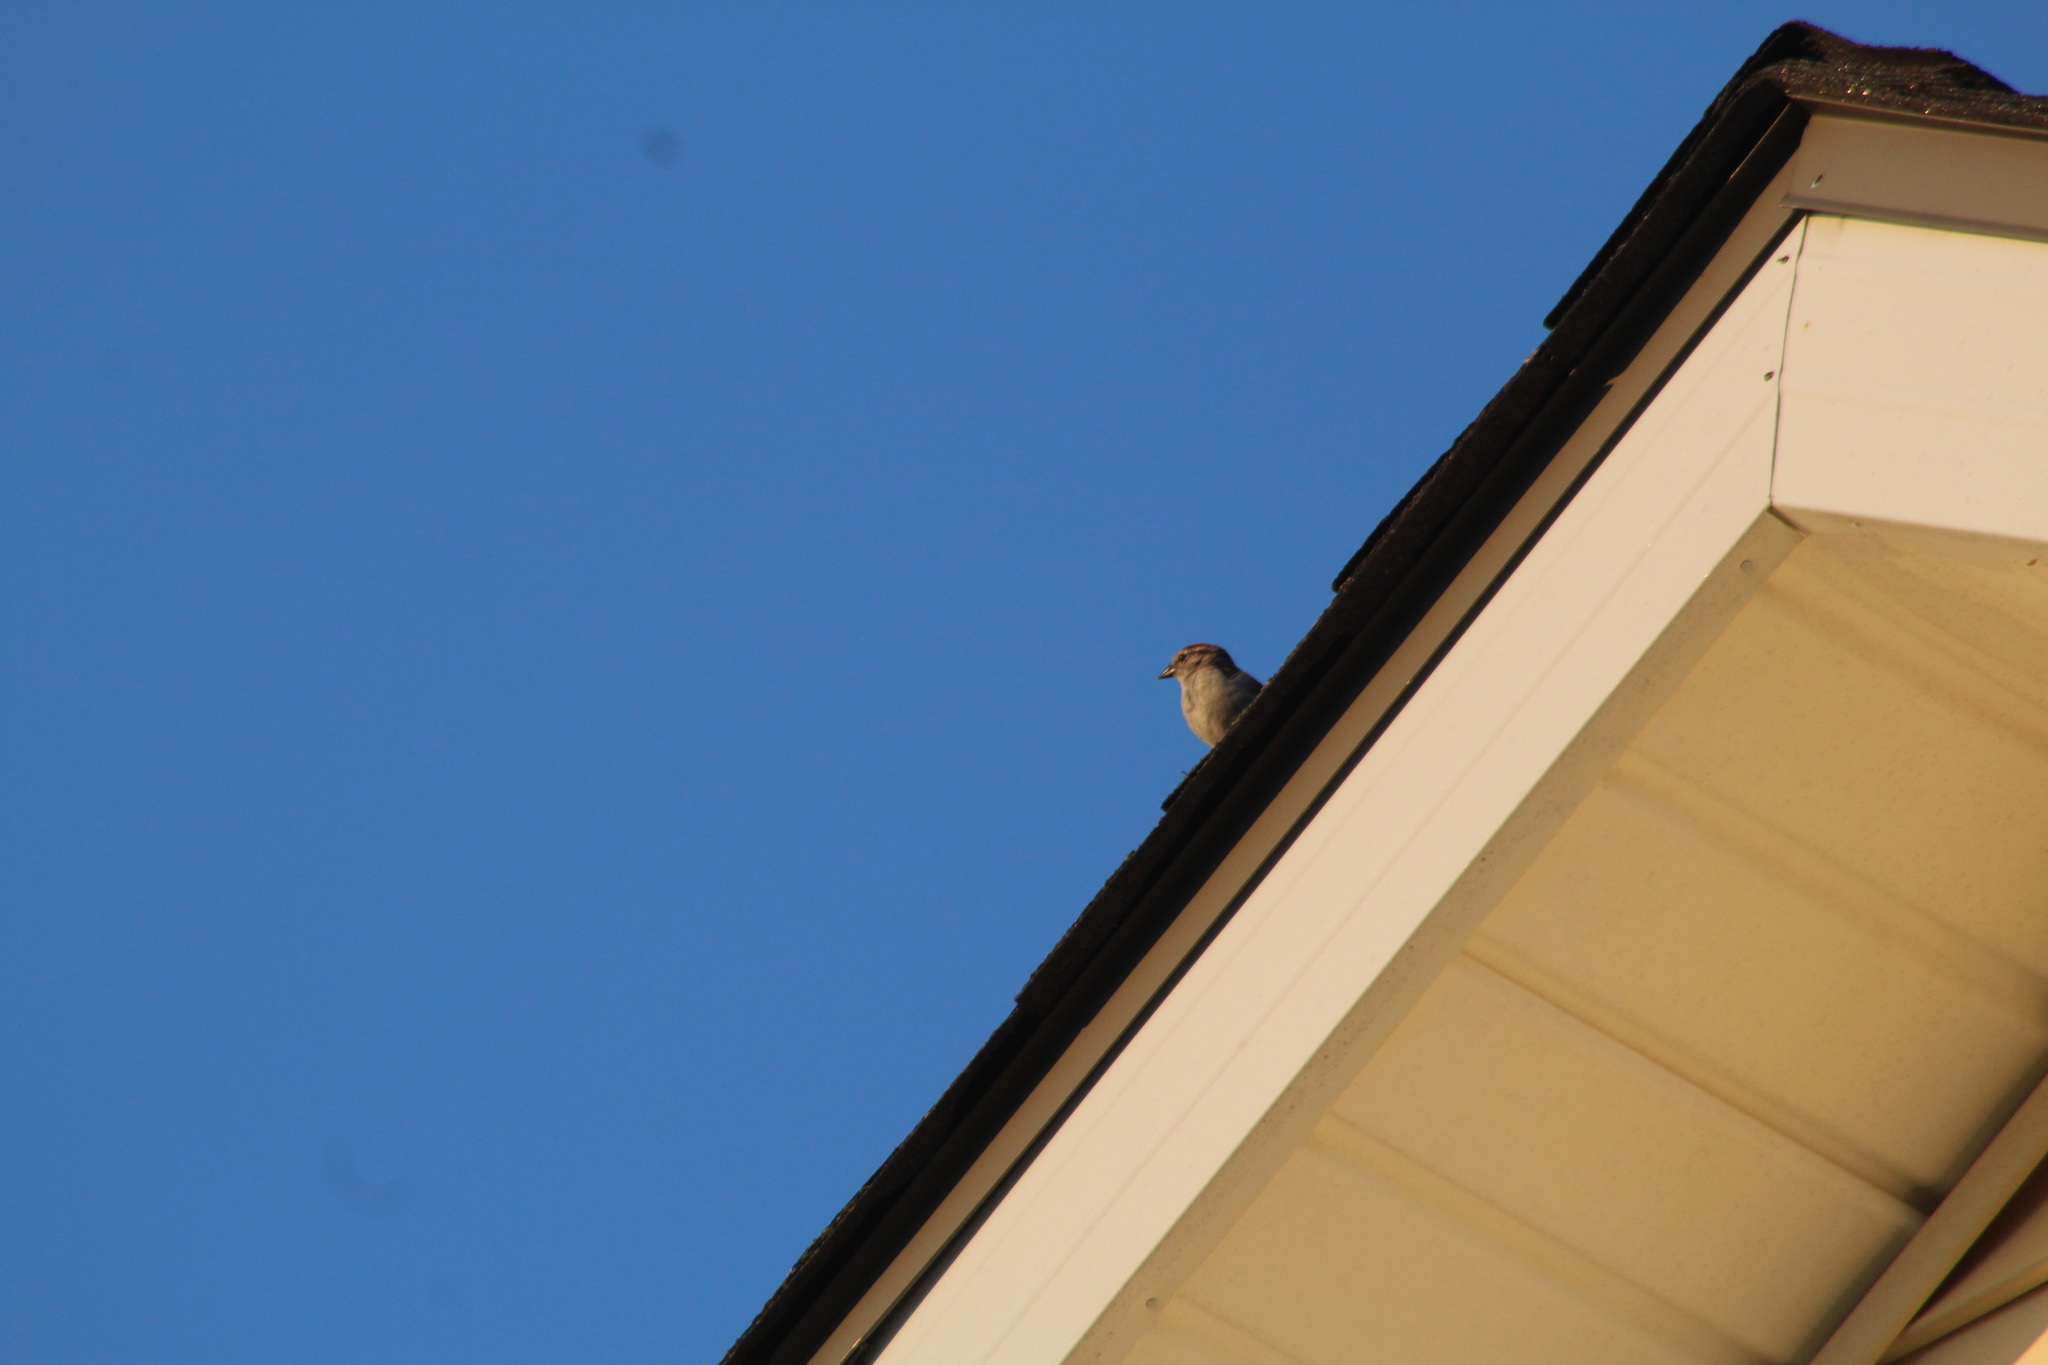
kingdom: Animalia
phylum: Chordata
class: Aves
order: Passeriformes
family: Passerellidae
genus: Spizella
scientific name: Spizella passerina
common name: Chipping sparrow
